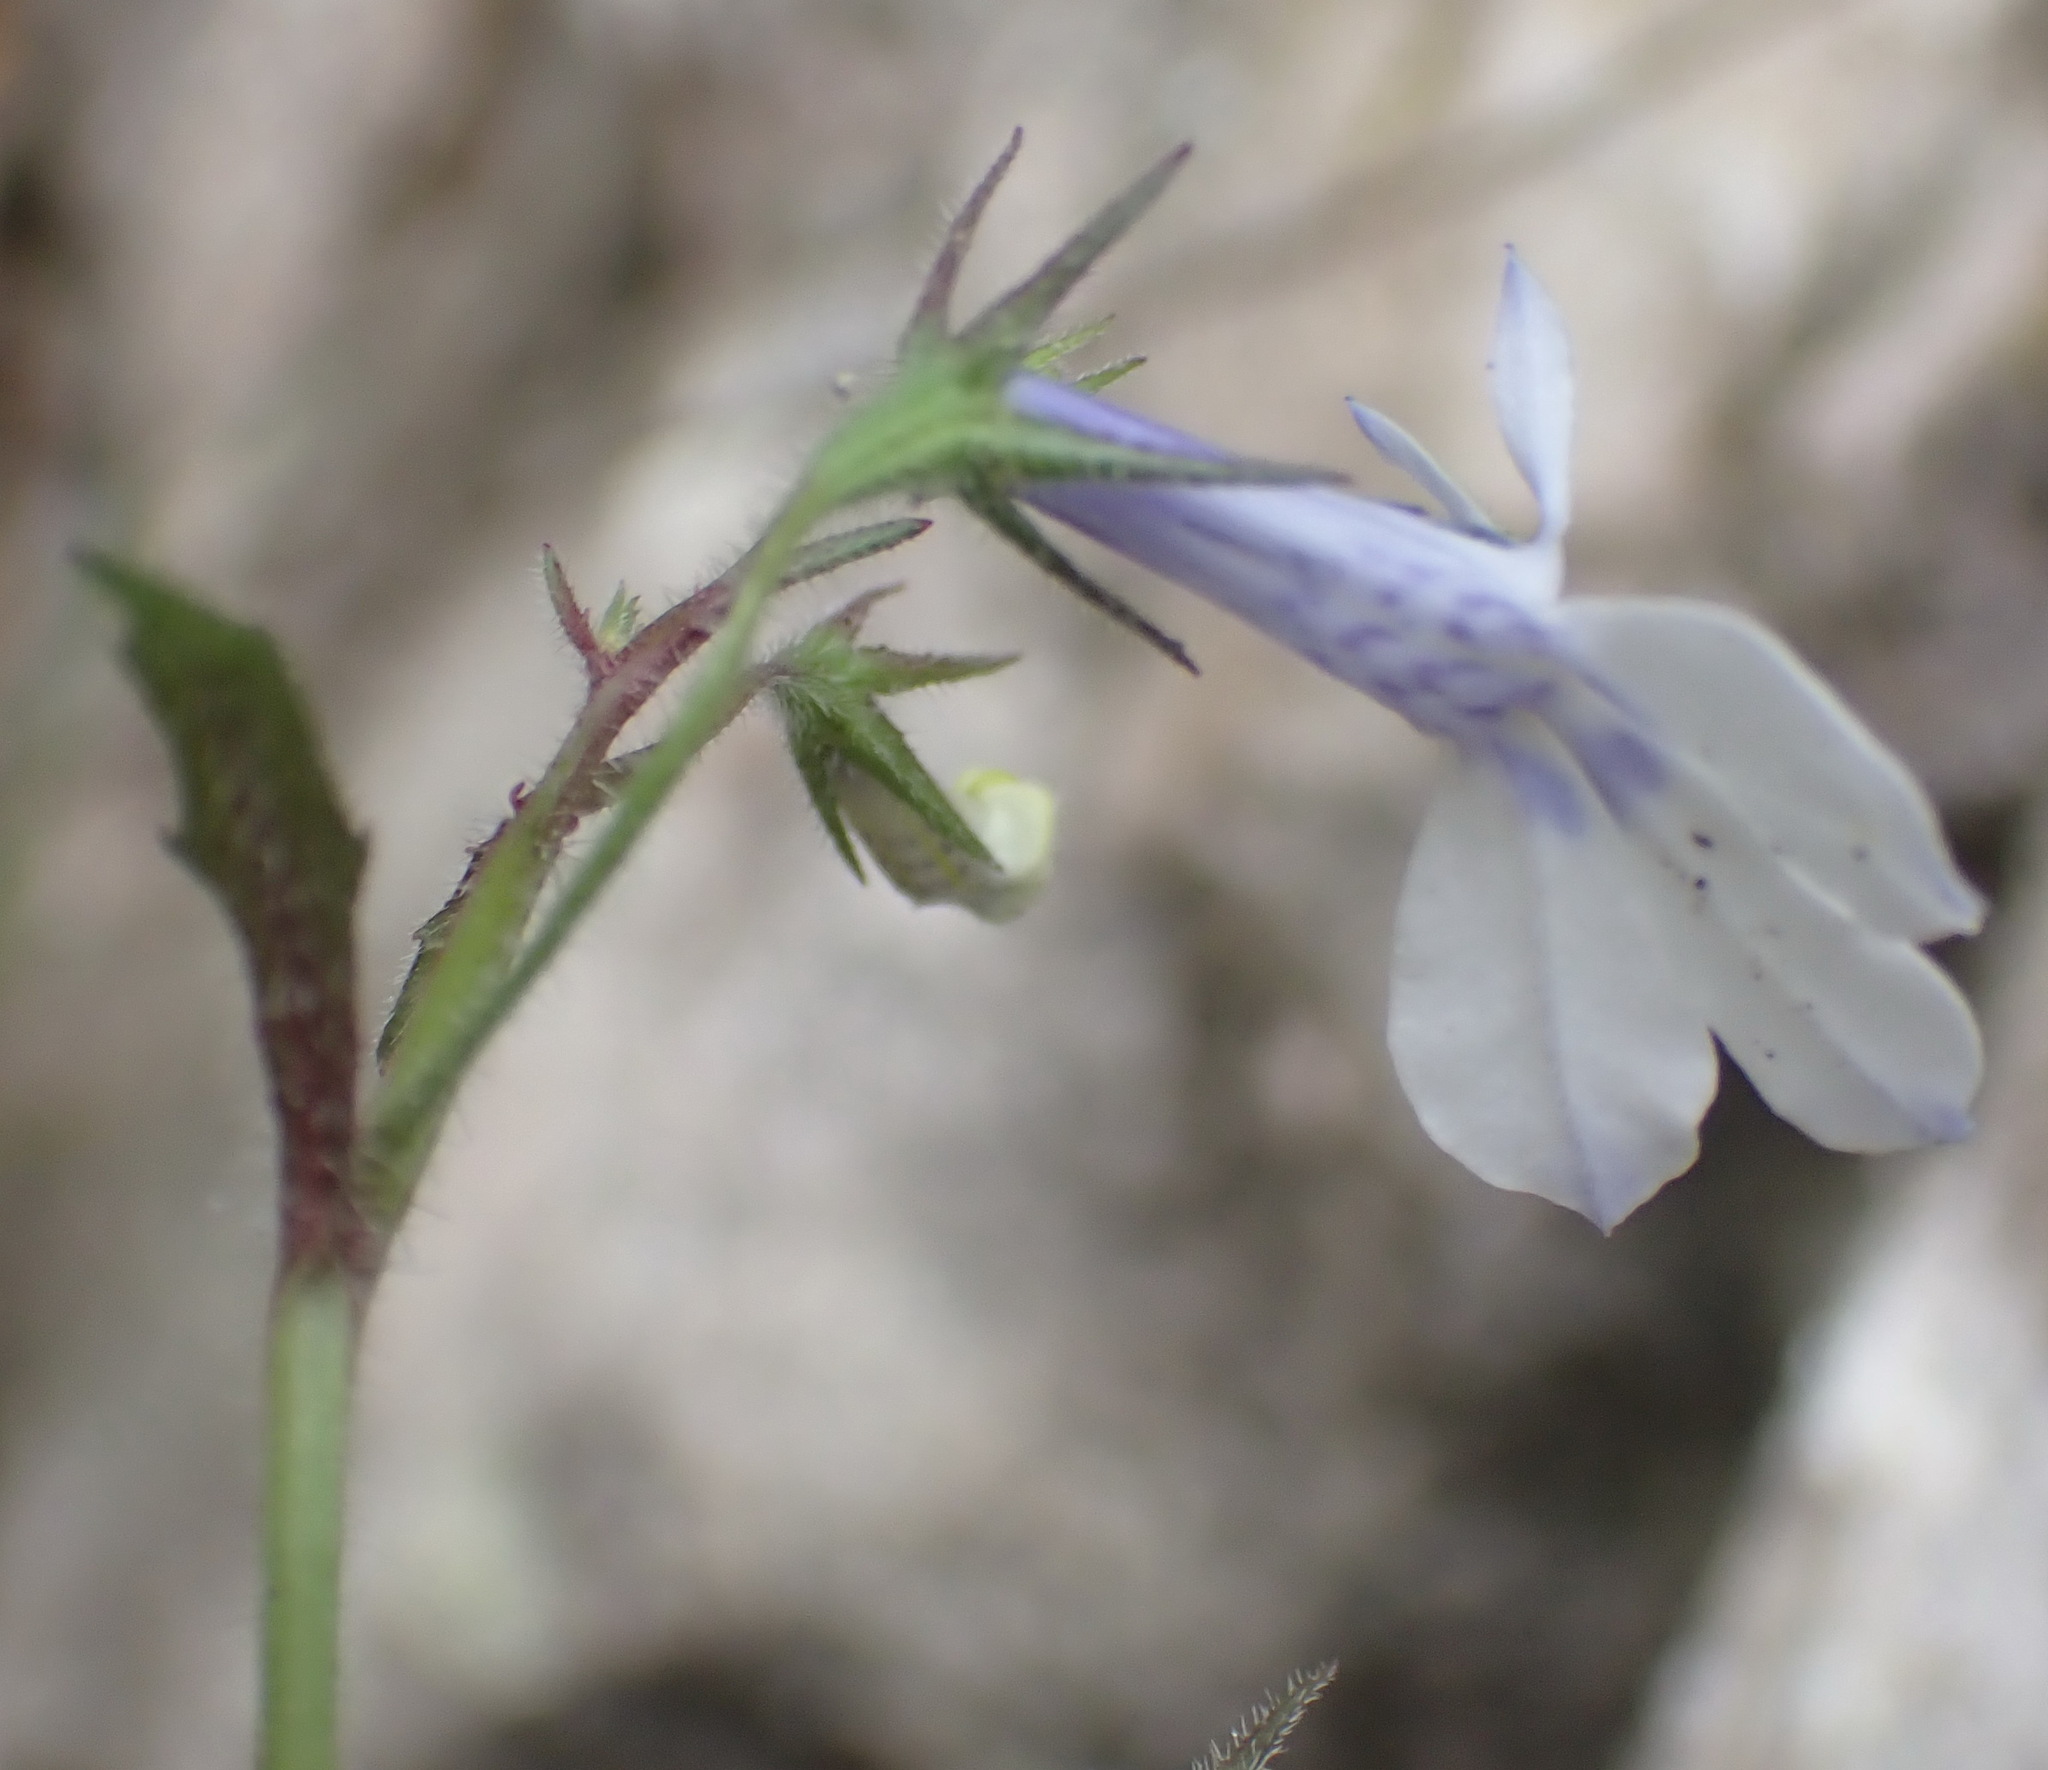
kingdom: Plantae
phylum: Tracheophyta
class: Magnoliopsida
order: Asterales
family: Campanulaceae
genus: Lobelia
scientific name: Lobelia cuneifolia
